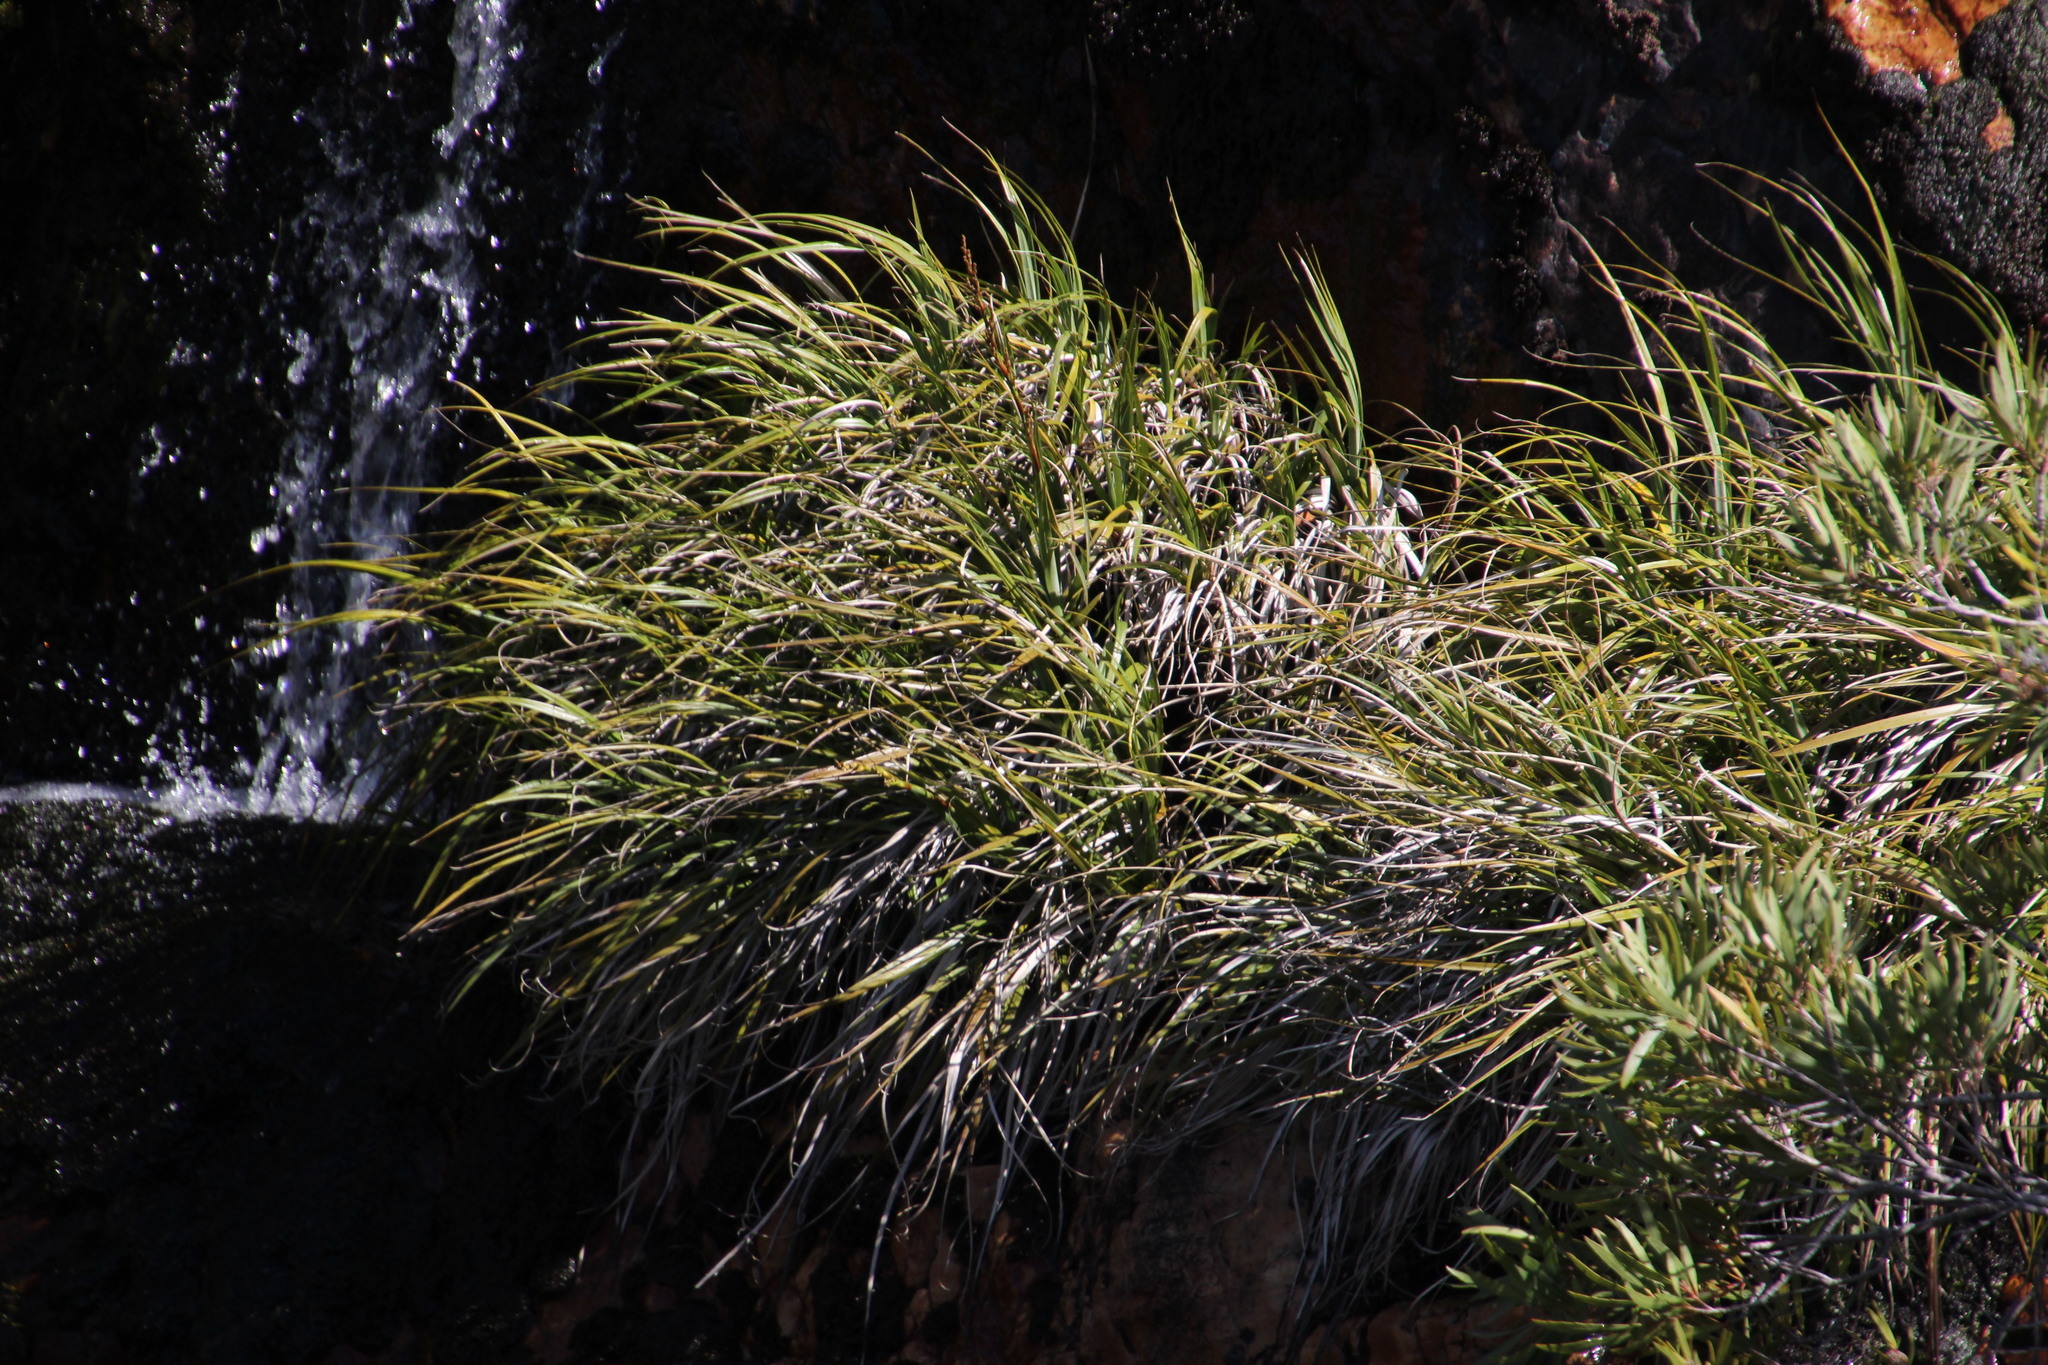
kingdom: Plantae
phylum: Tracheophyta
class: Liliopsida
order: Poales
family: Thurniaceae
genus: Prionium
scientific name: Prionium serratum
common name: Palmiet
